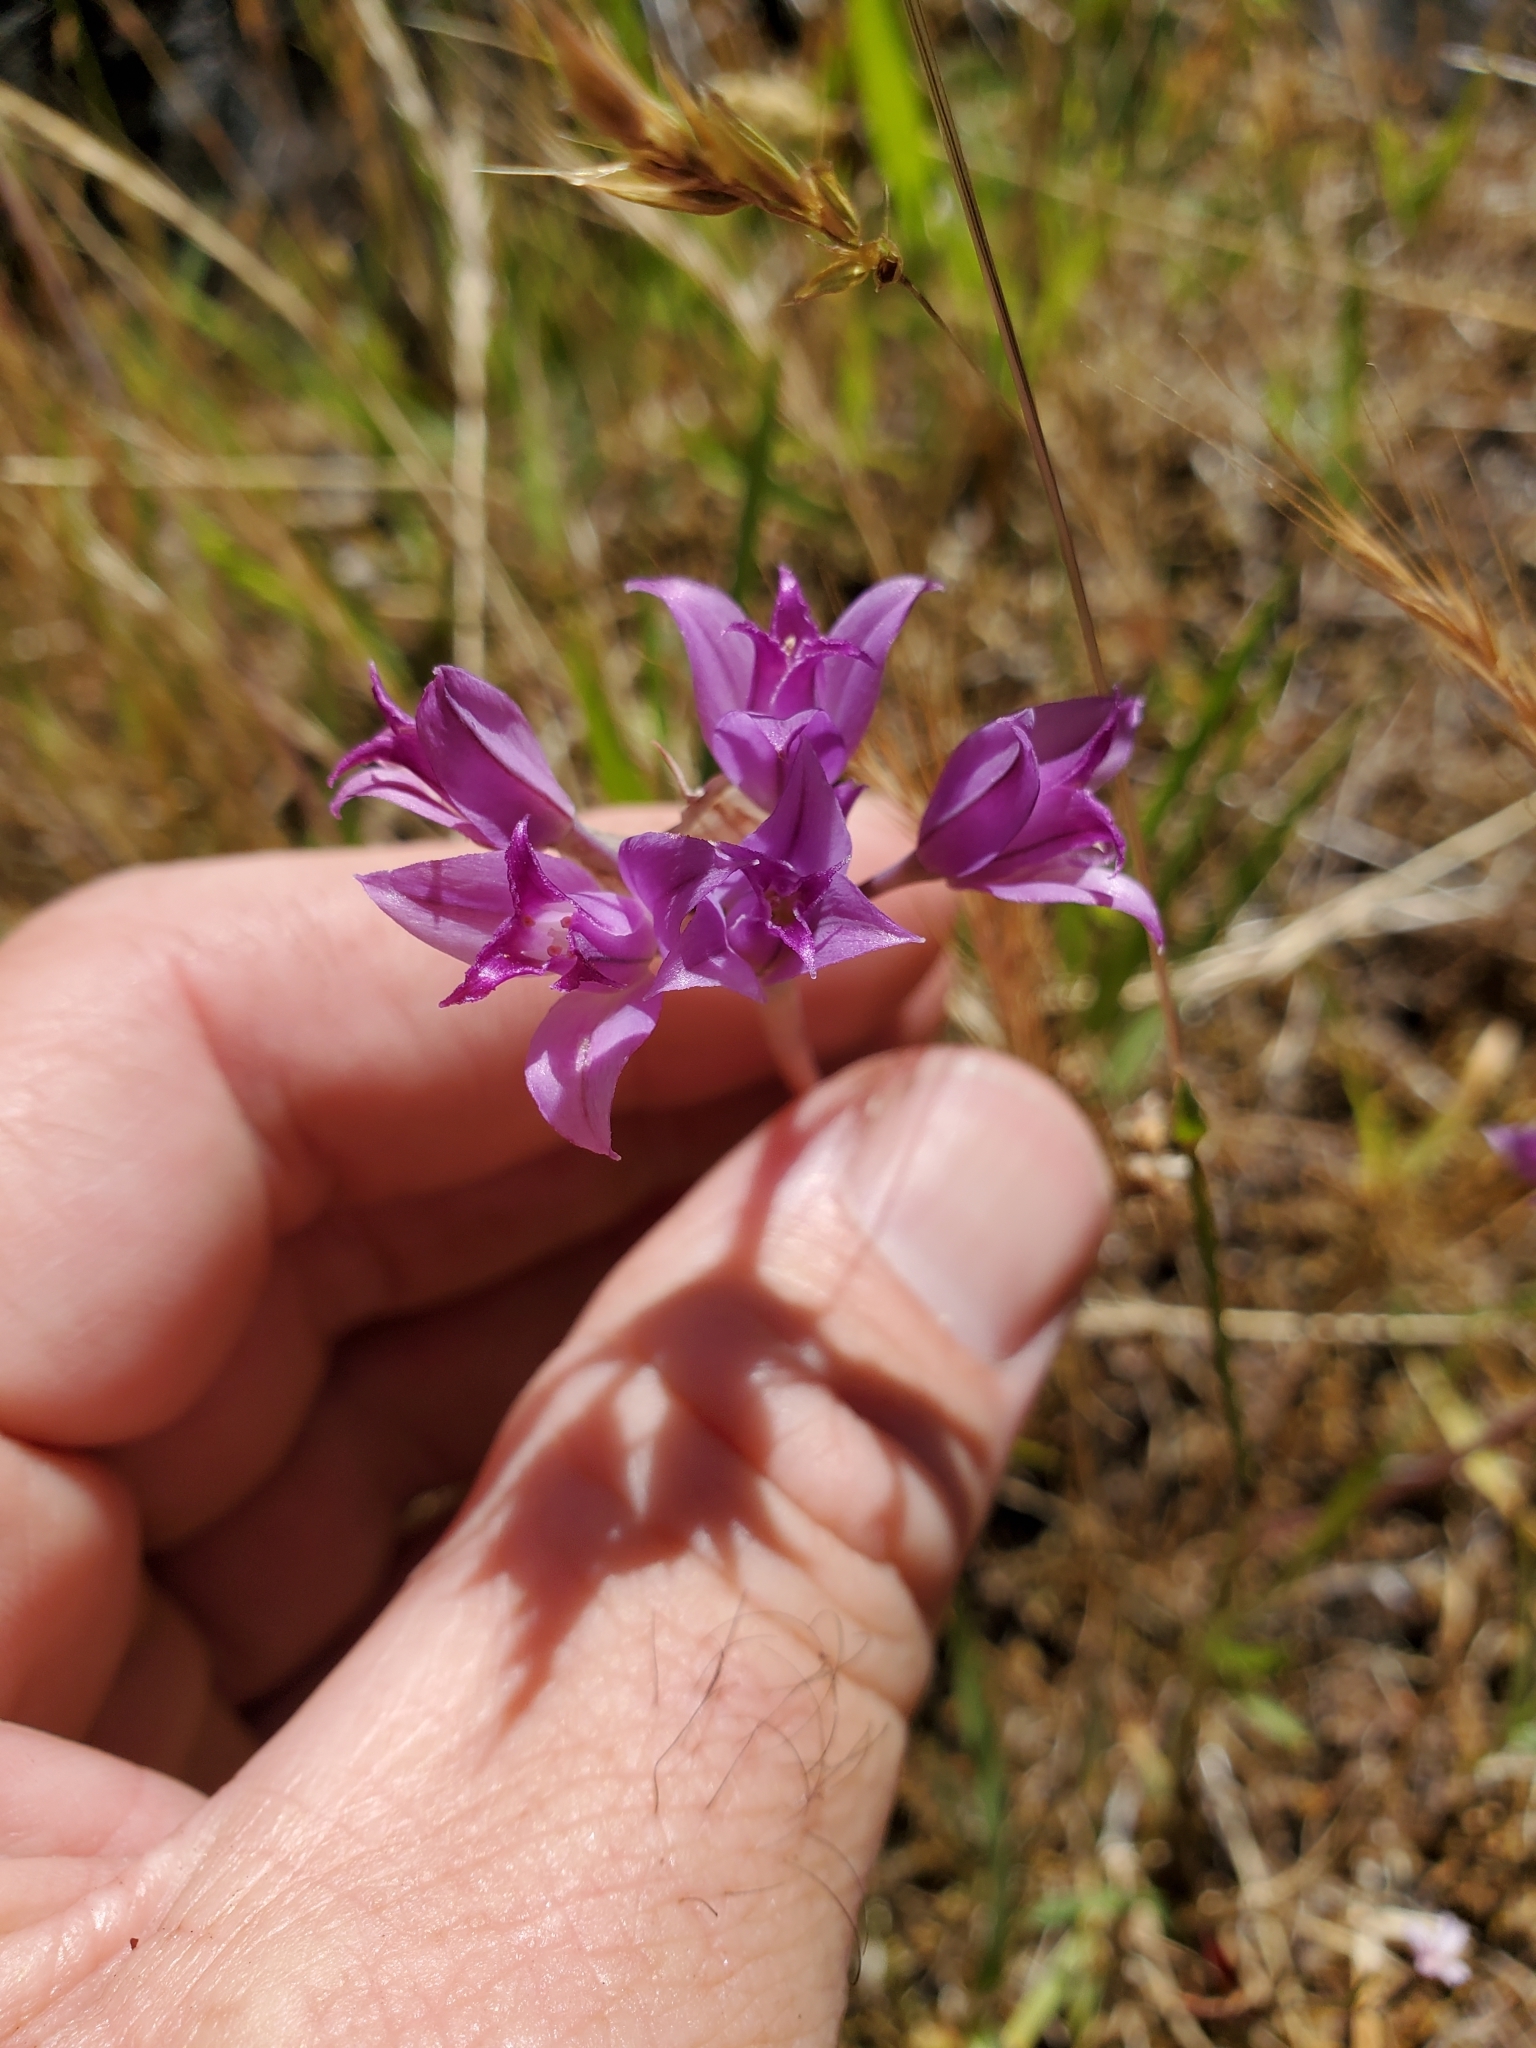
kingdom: Plantae
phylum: Tracheophyta
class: Liliopsida
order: Asparagales
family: Amaryllidaceae
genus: Allium
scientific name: Allium acuminatum
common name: Hooker's onion
